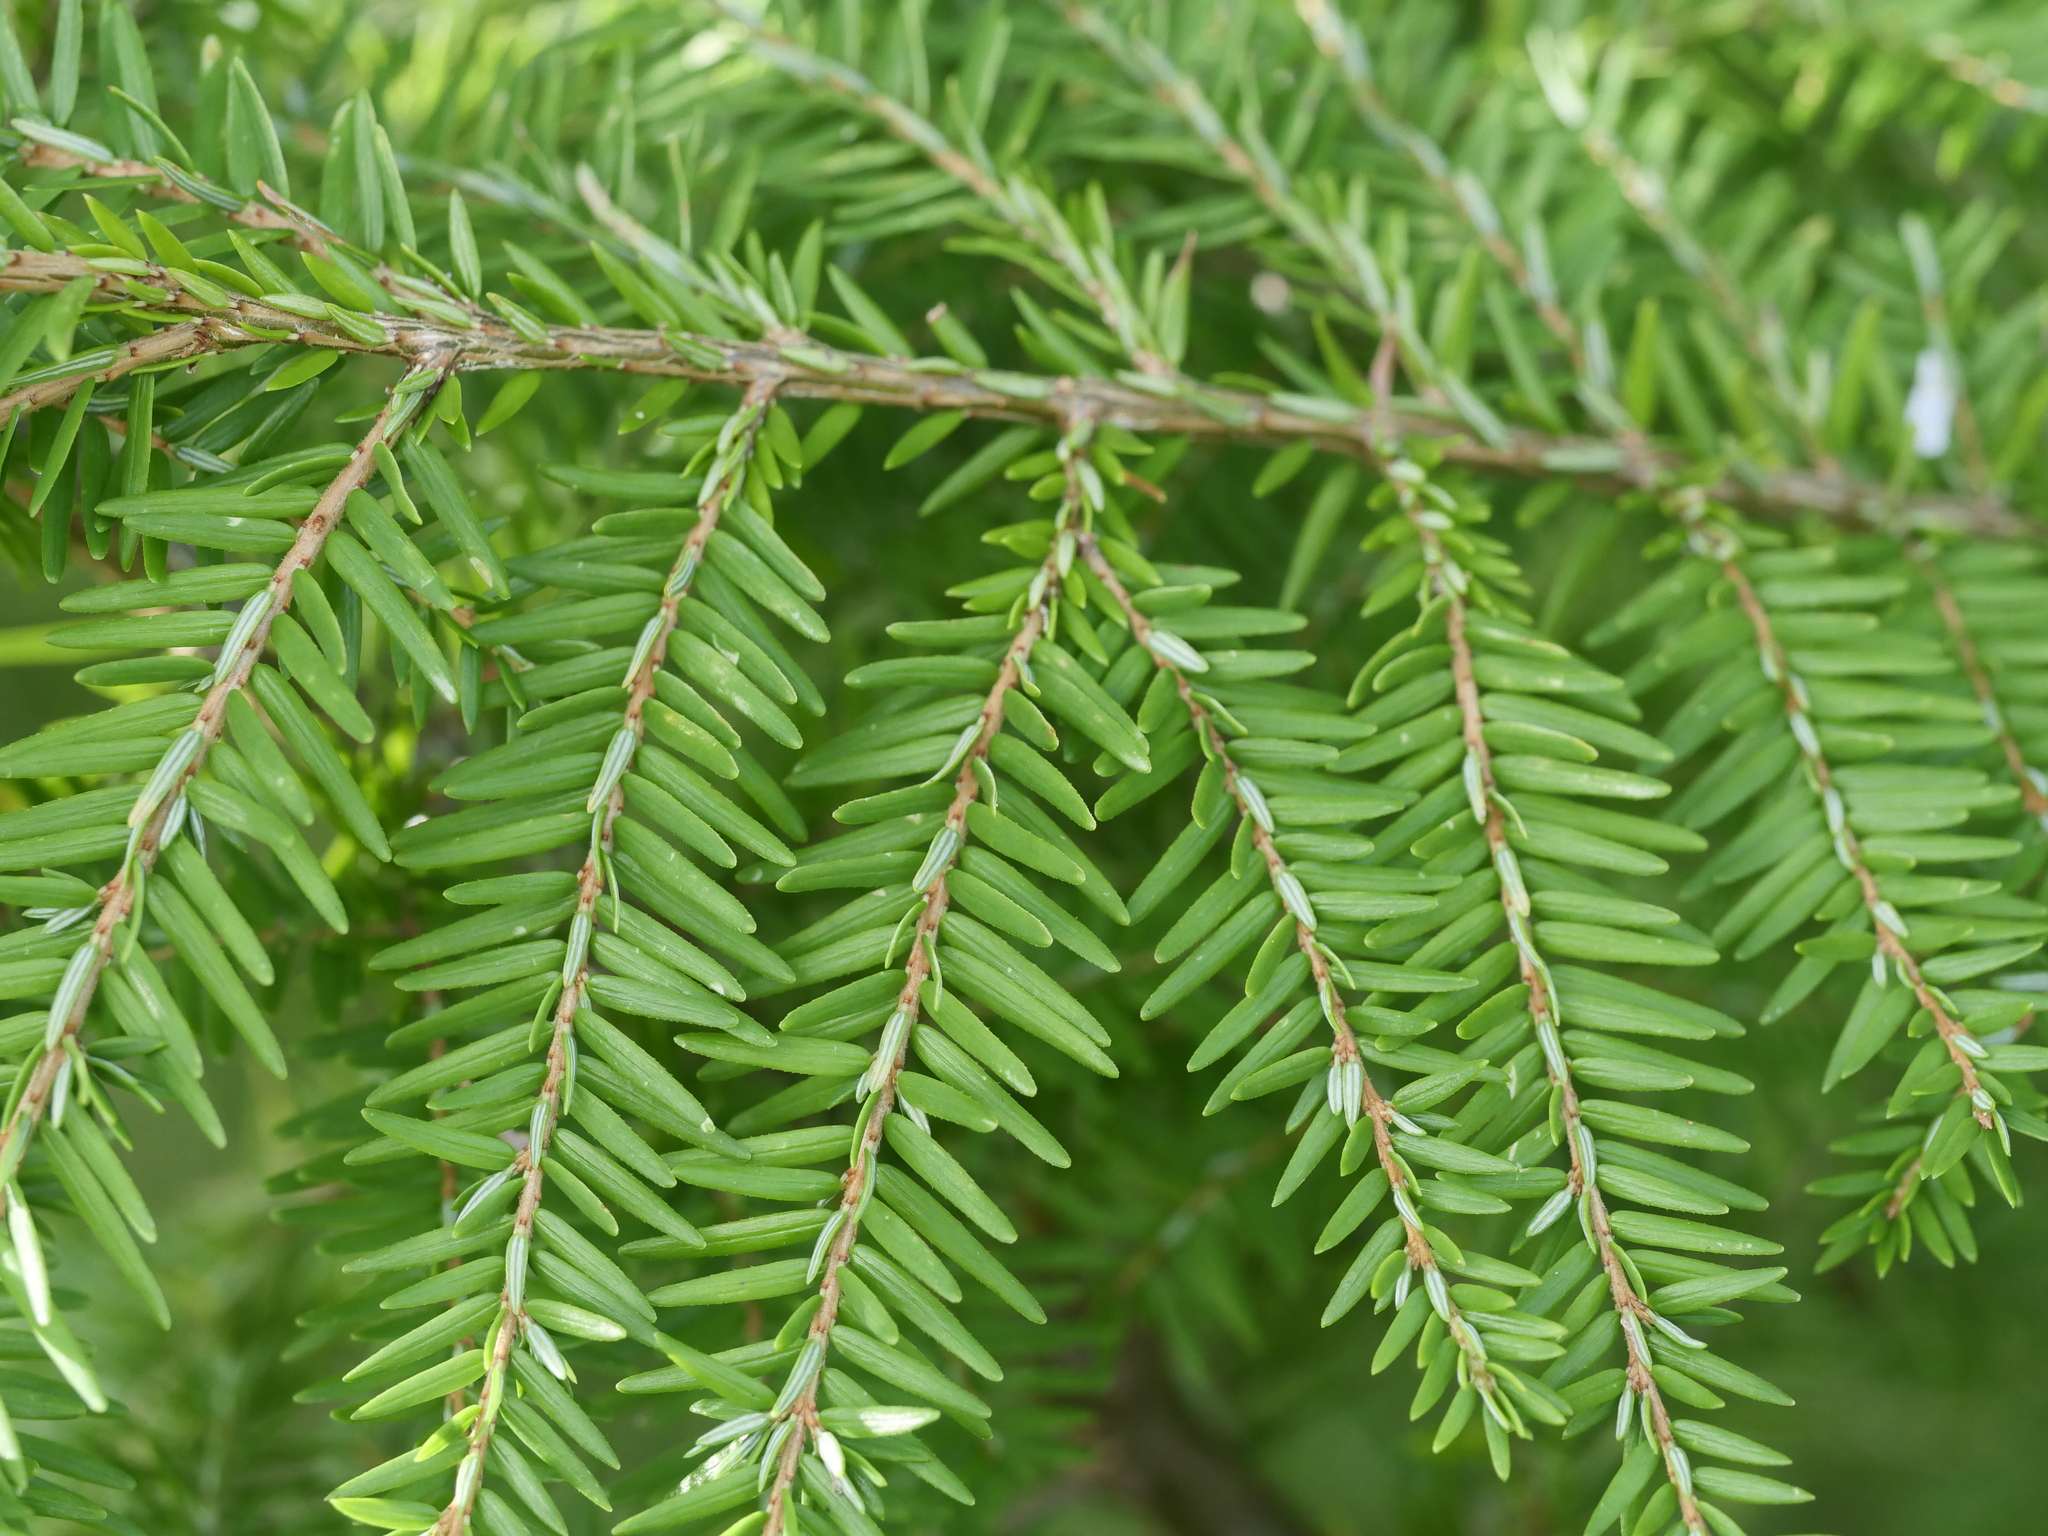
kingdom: Plantae
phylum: Tracheophyta
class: Pinopsida
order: Pinales
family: Pinaceae
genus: Tsuga
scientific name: Tsuga canadensis
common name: Eastern hemlock
